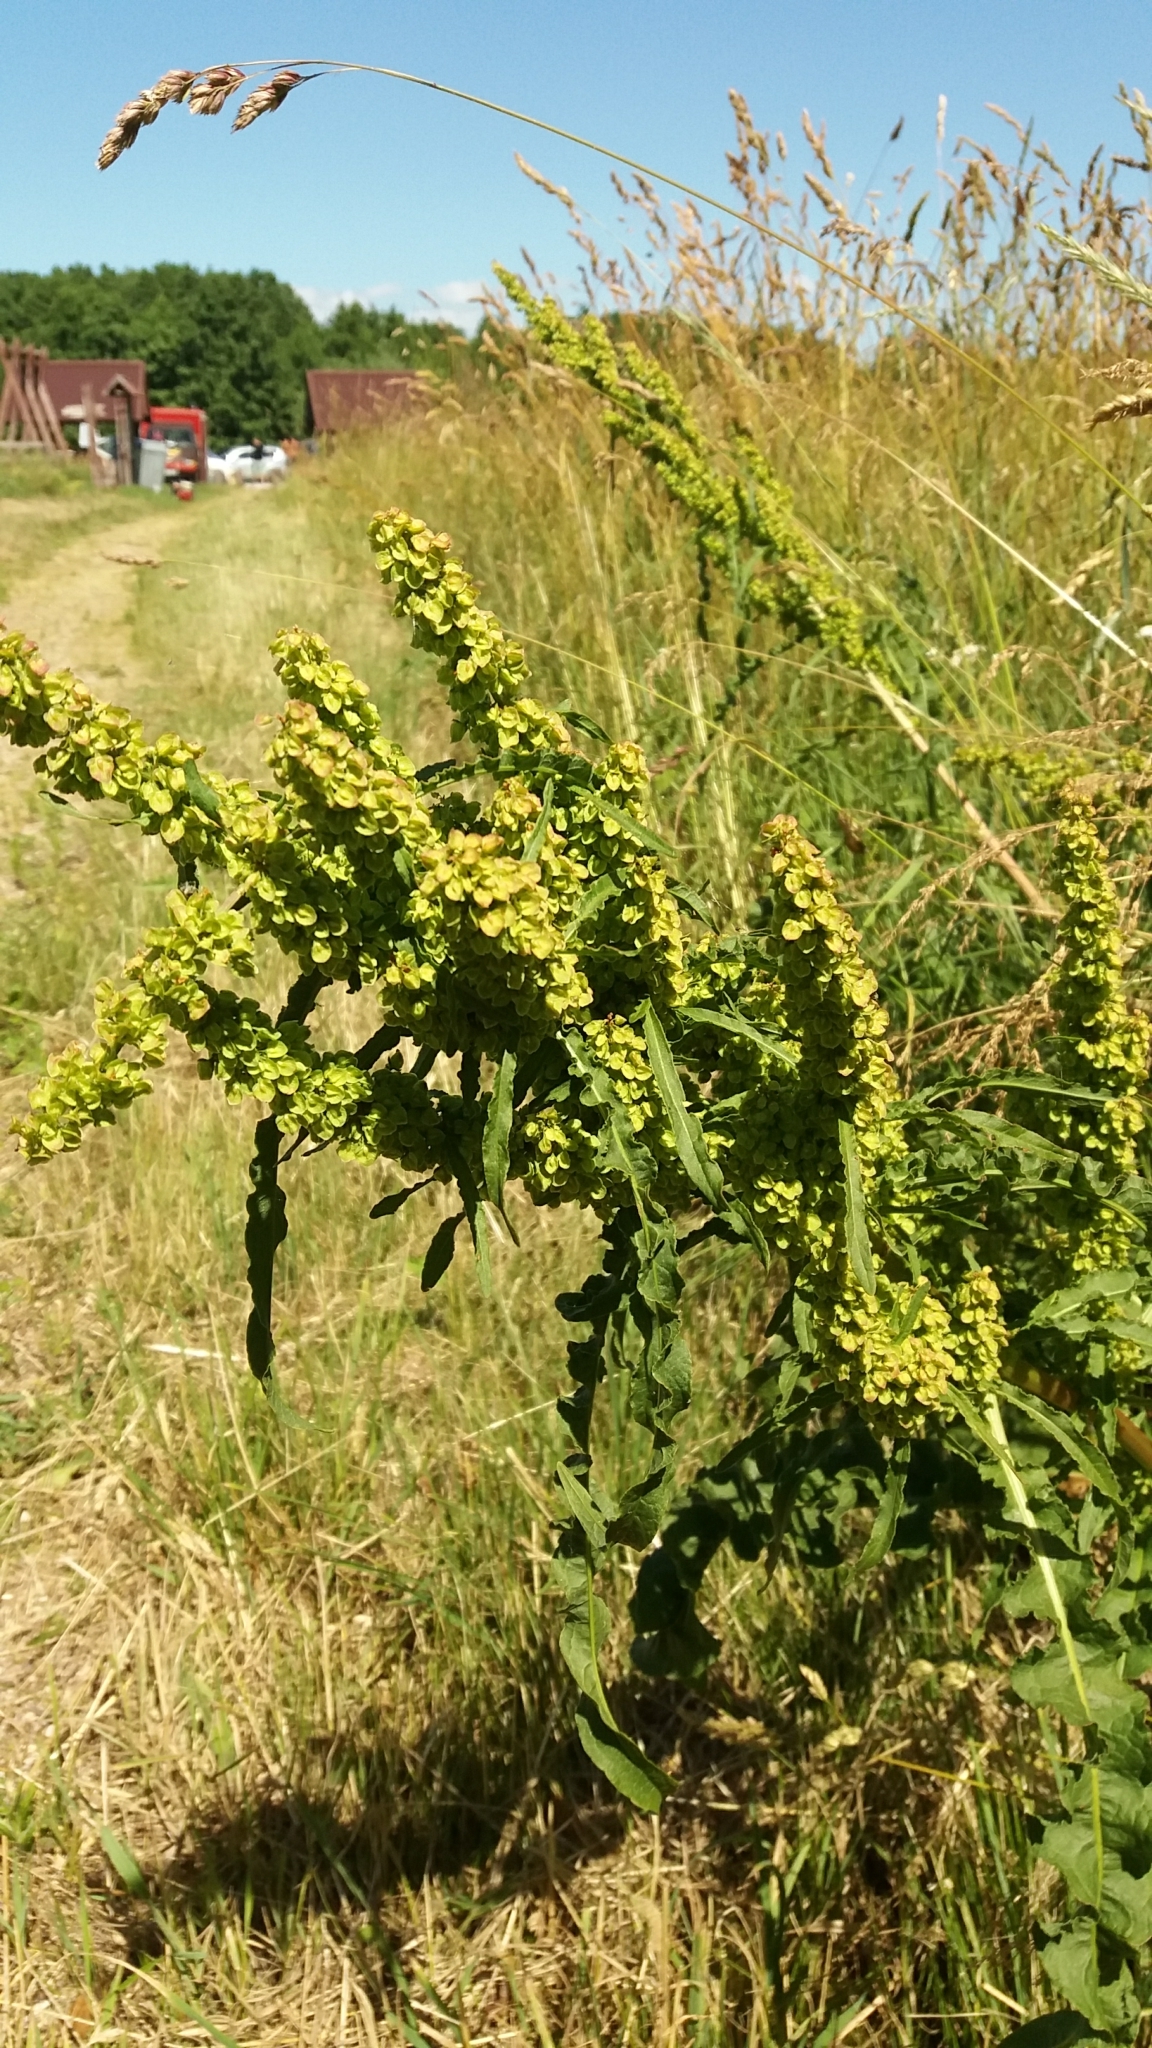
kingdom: Plantae
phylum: Tracheophyta
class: Magnoliopsida
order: Caryophyllales
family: Polygonaceae
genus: Rumex
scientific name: Rumex crispus
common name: Curled dock
